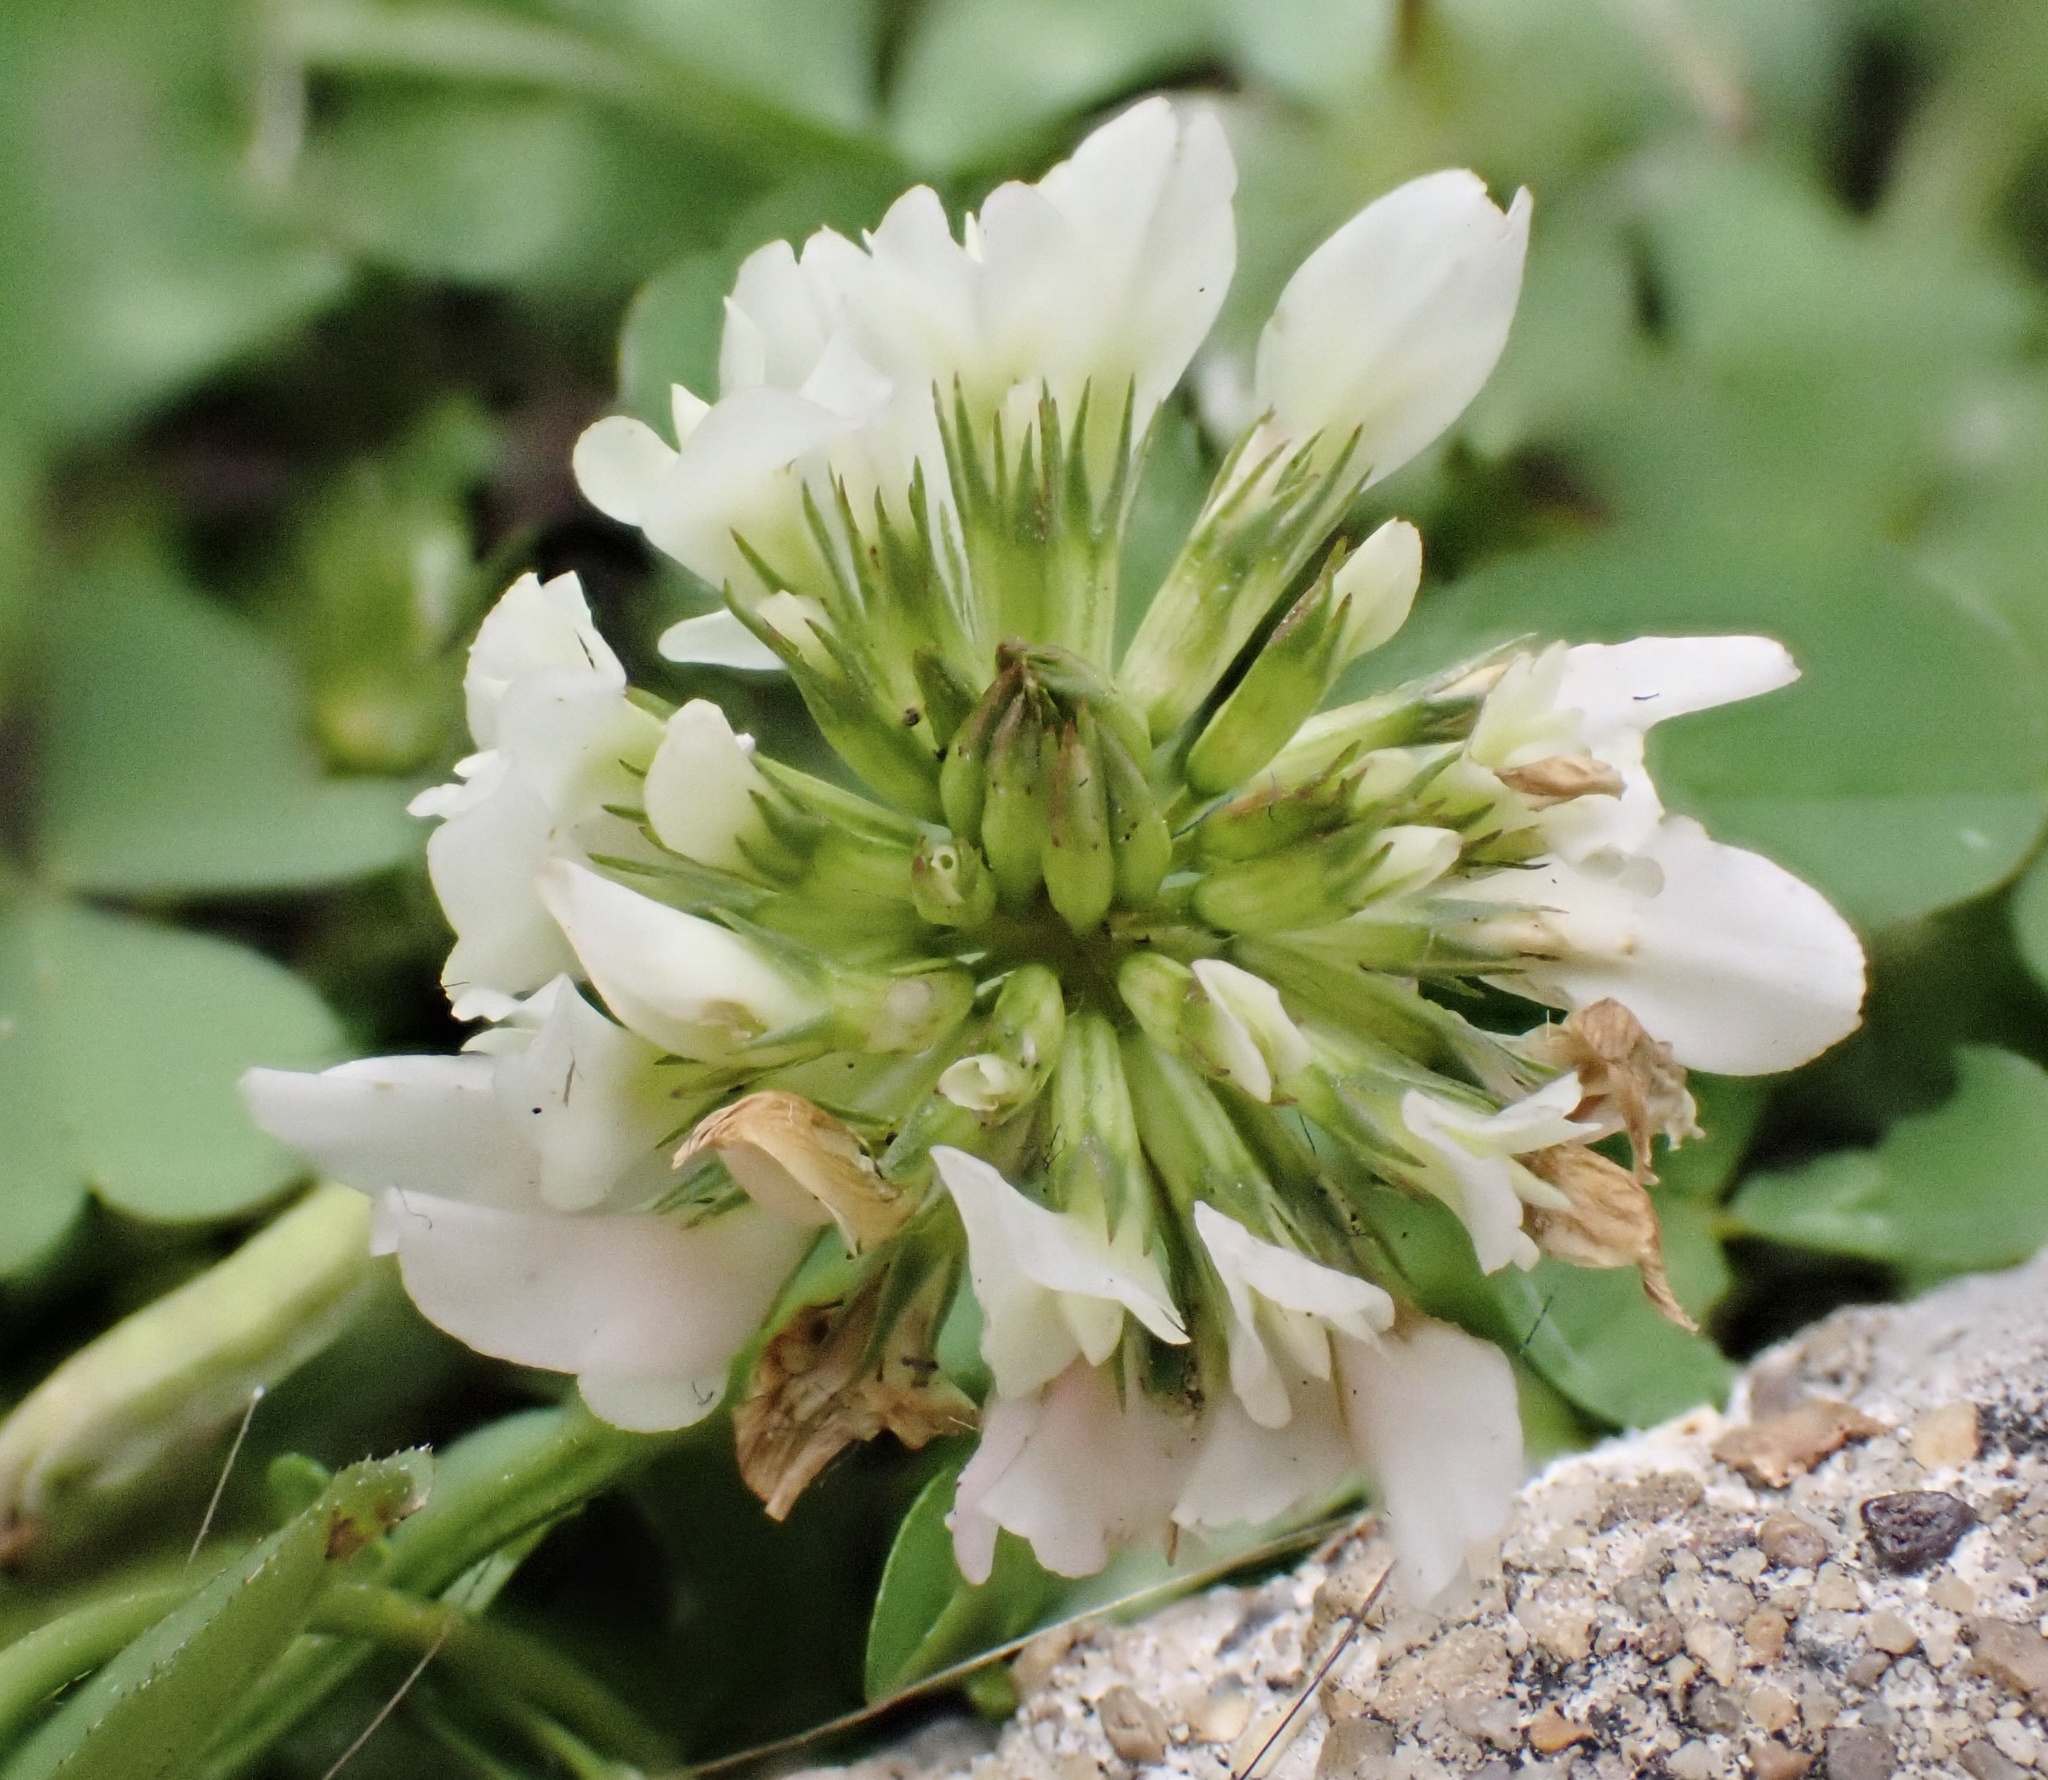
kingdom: Plantae
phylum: Tracheophyta
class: Magnoliopsida
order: Fabales
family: Fabaceae
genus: Trifolium
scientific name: Trifolium repens
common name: White clover
